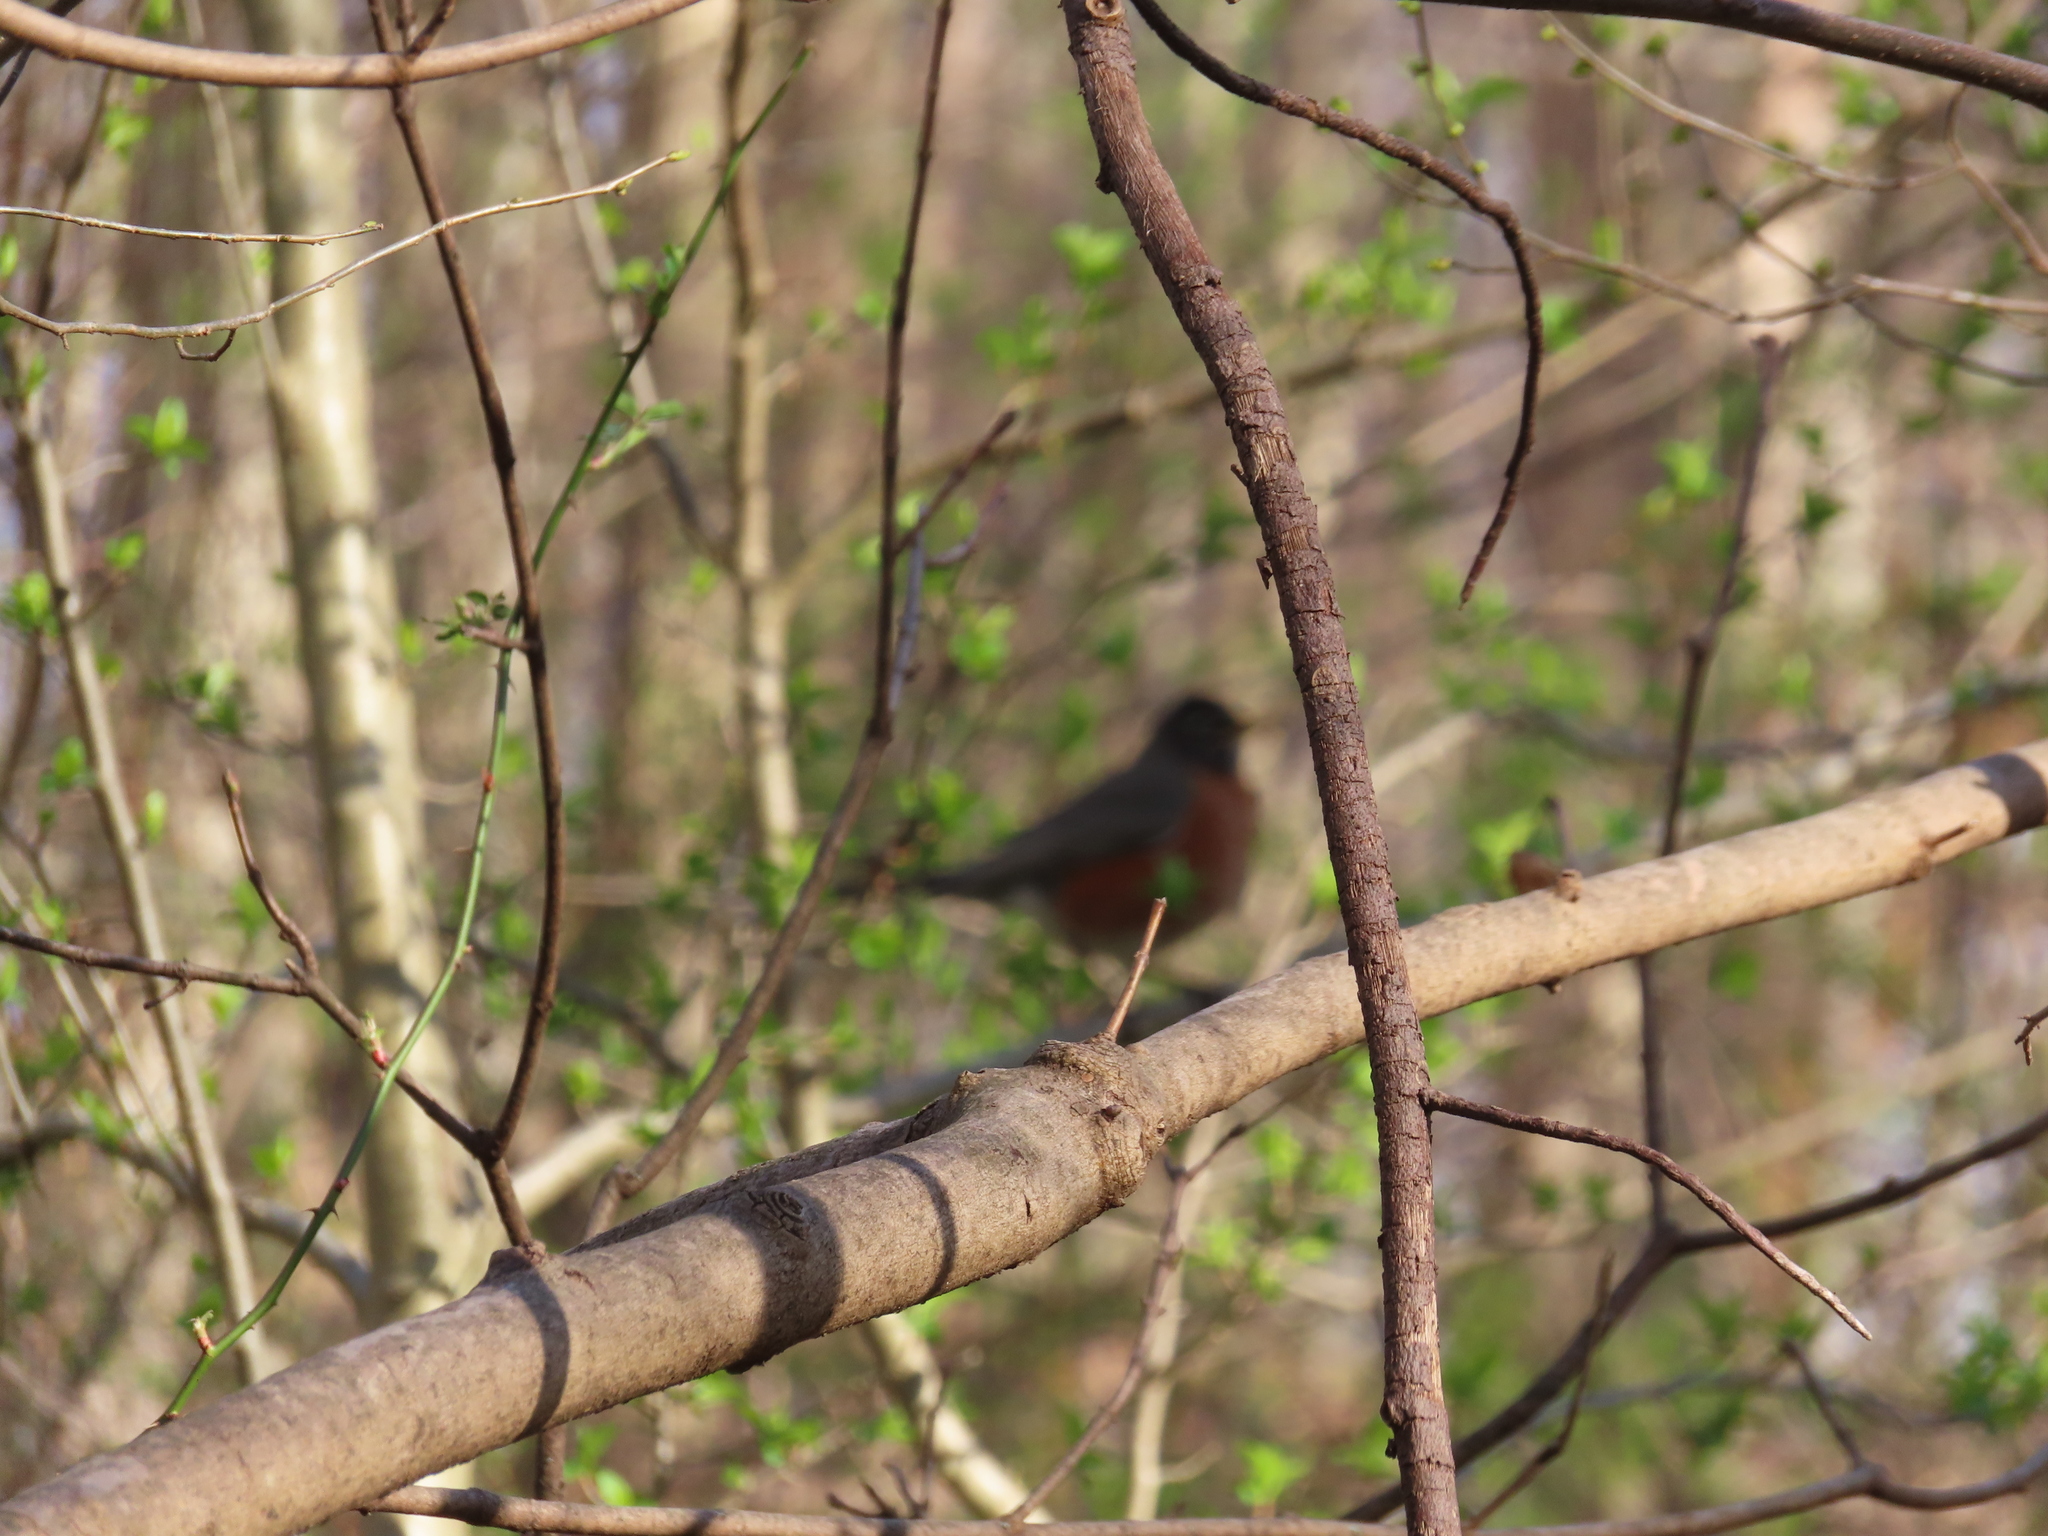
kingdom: Animalia
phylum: Chordata
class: Aves
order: Passeriformes
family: Turdidae
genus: Turdus
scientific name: Turdus migratorius
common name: American robin
